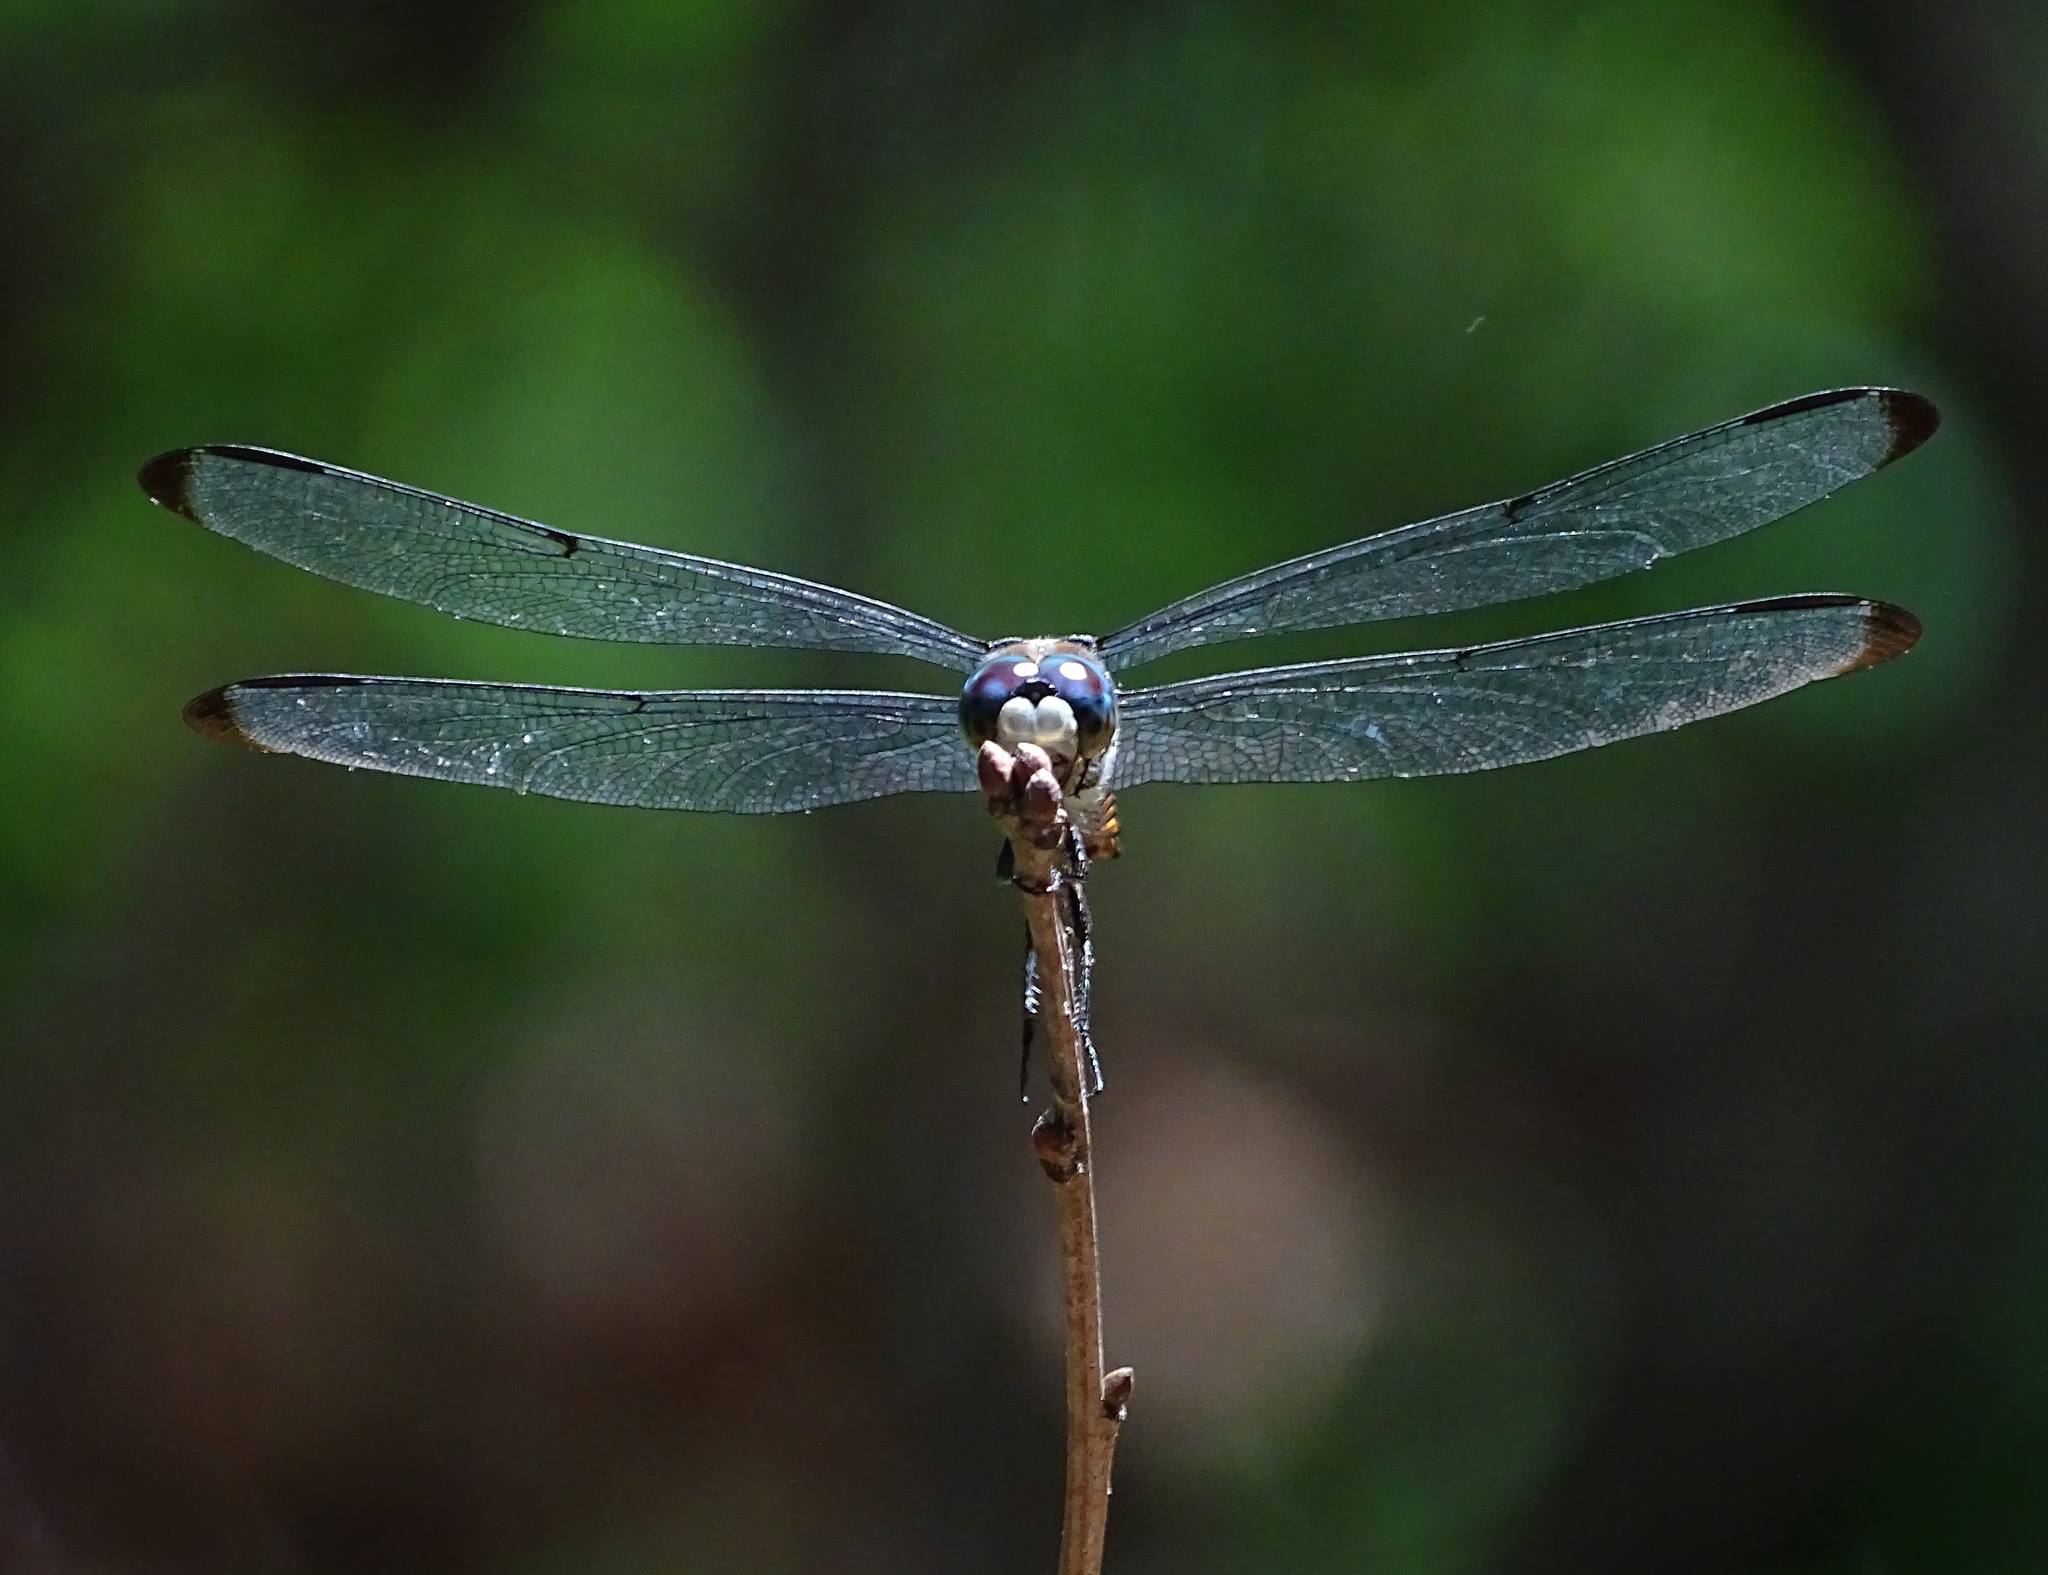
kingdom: Animalia
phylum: Arthropoda
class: Insecta
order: Odonata
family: Libellulidae
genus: Libellula
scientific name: Libellula vibrans
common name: Great blue skimmer
